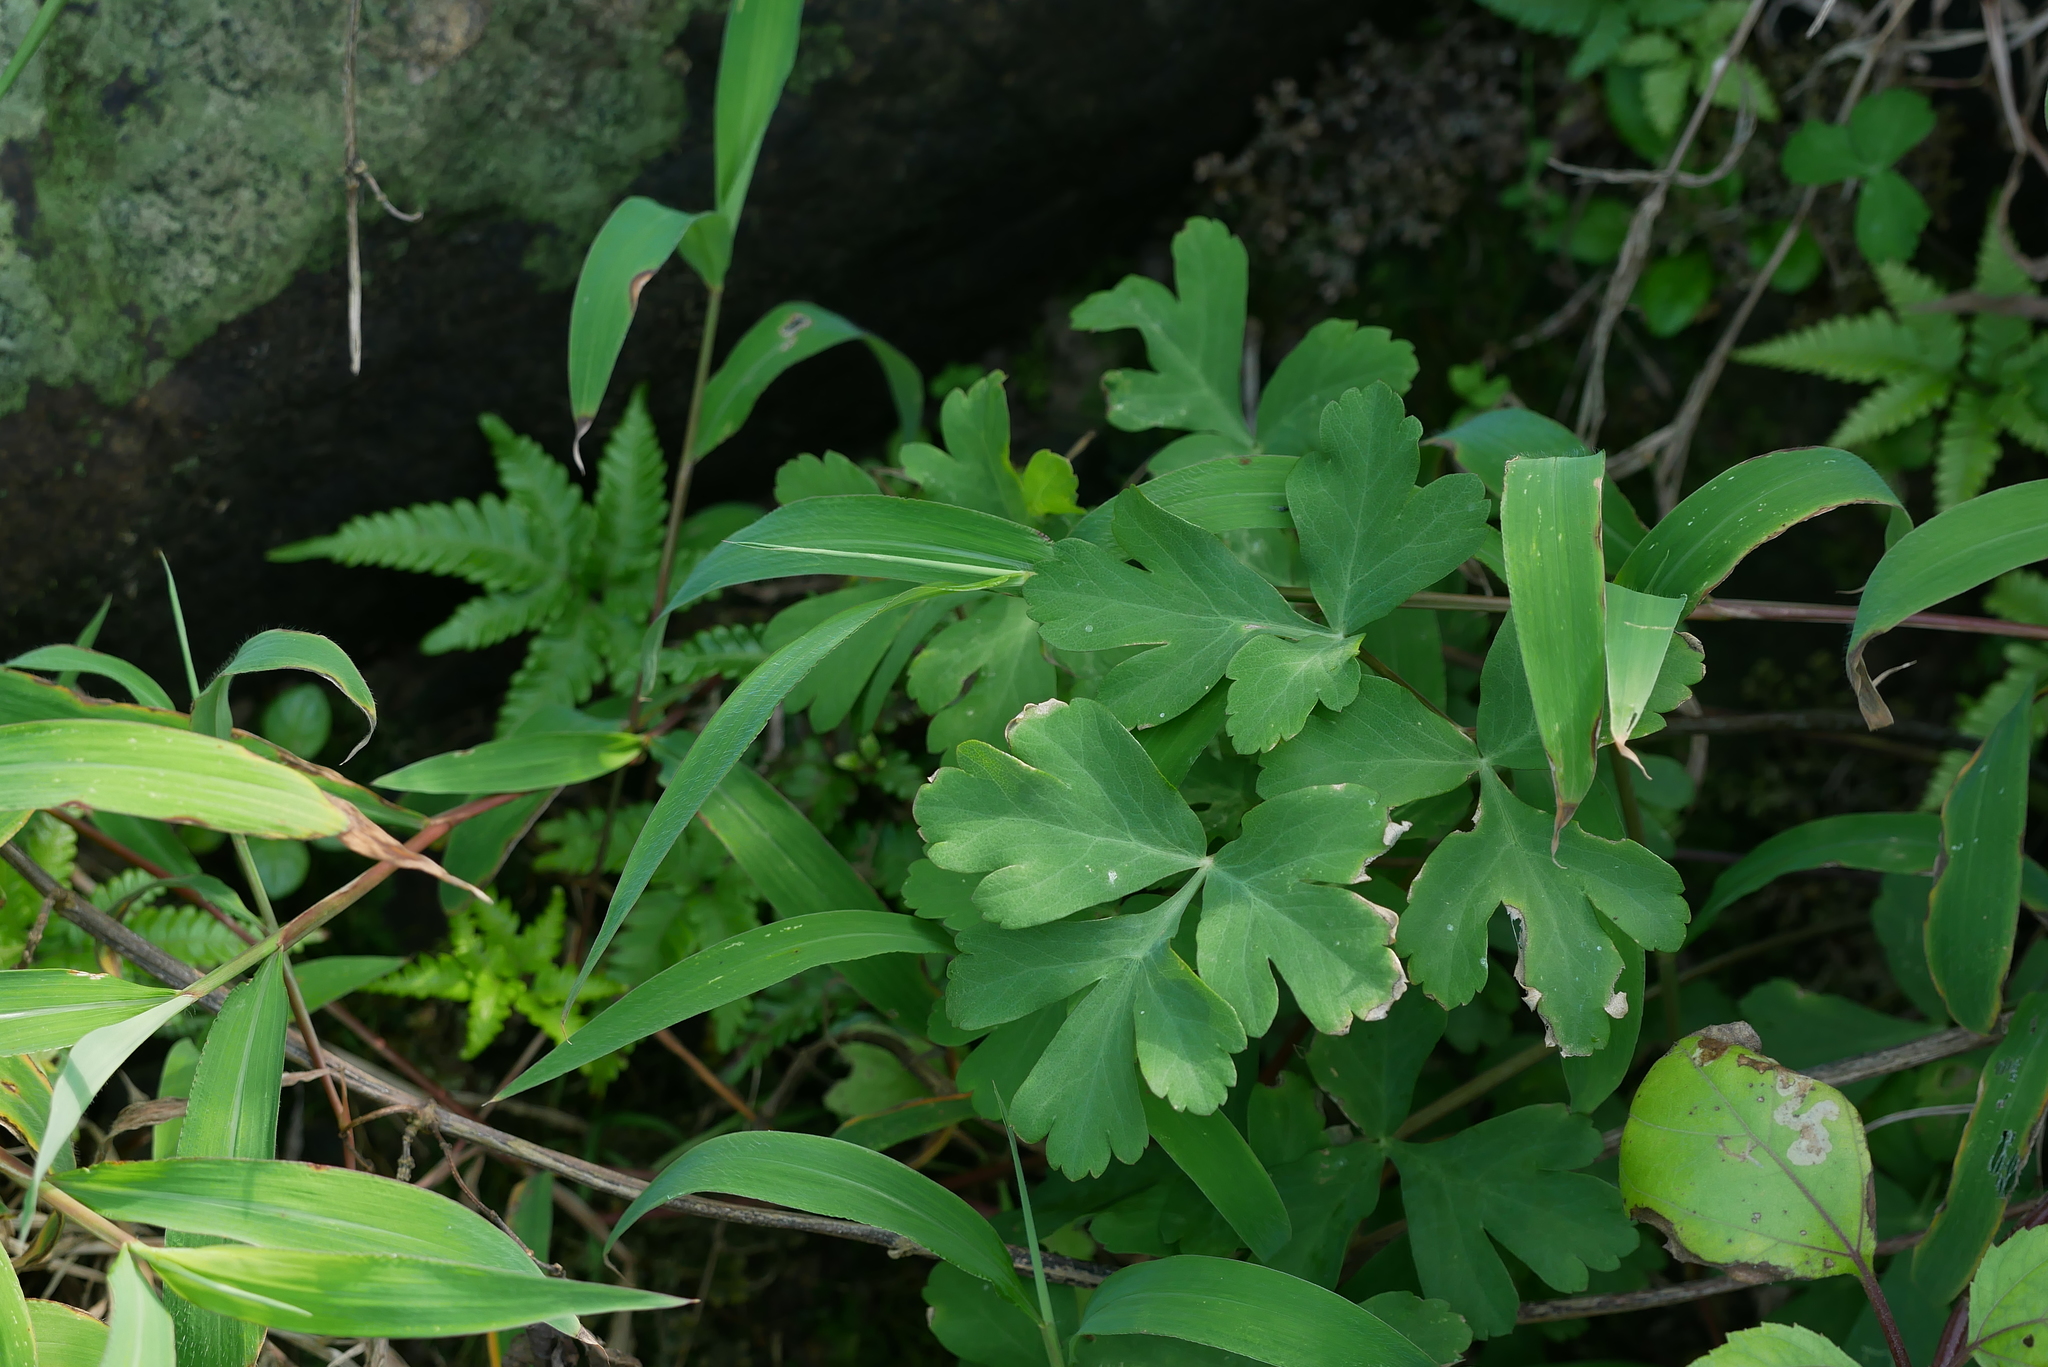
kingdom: Plantae
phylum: Tracheophyta
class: Magnoliopsida
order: Apiales
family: Apiaceae
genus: Peucedanum
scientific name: Peucedanum japonicum
